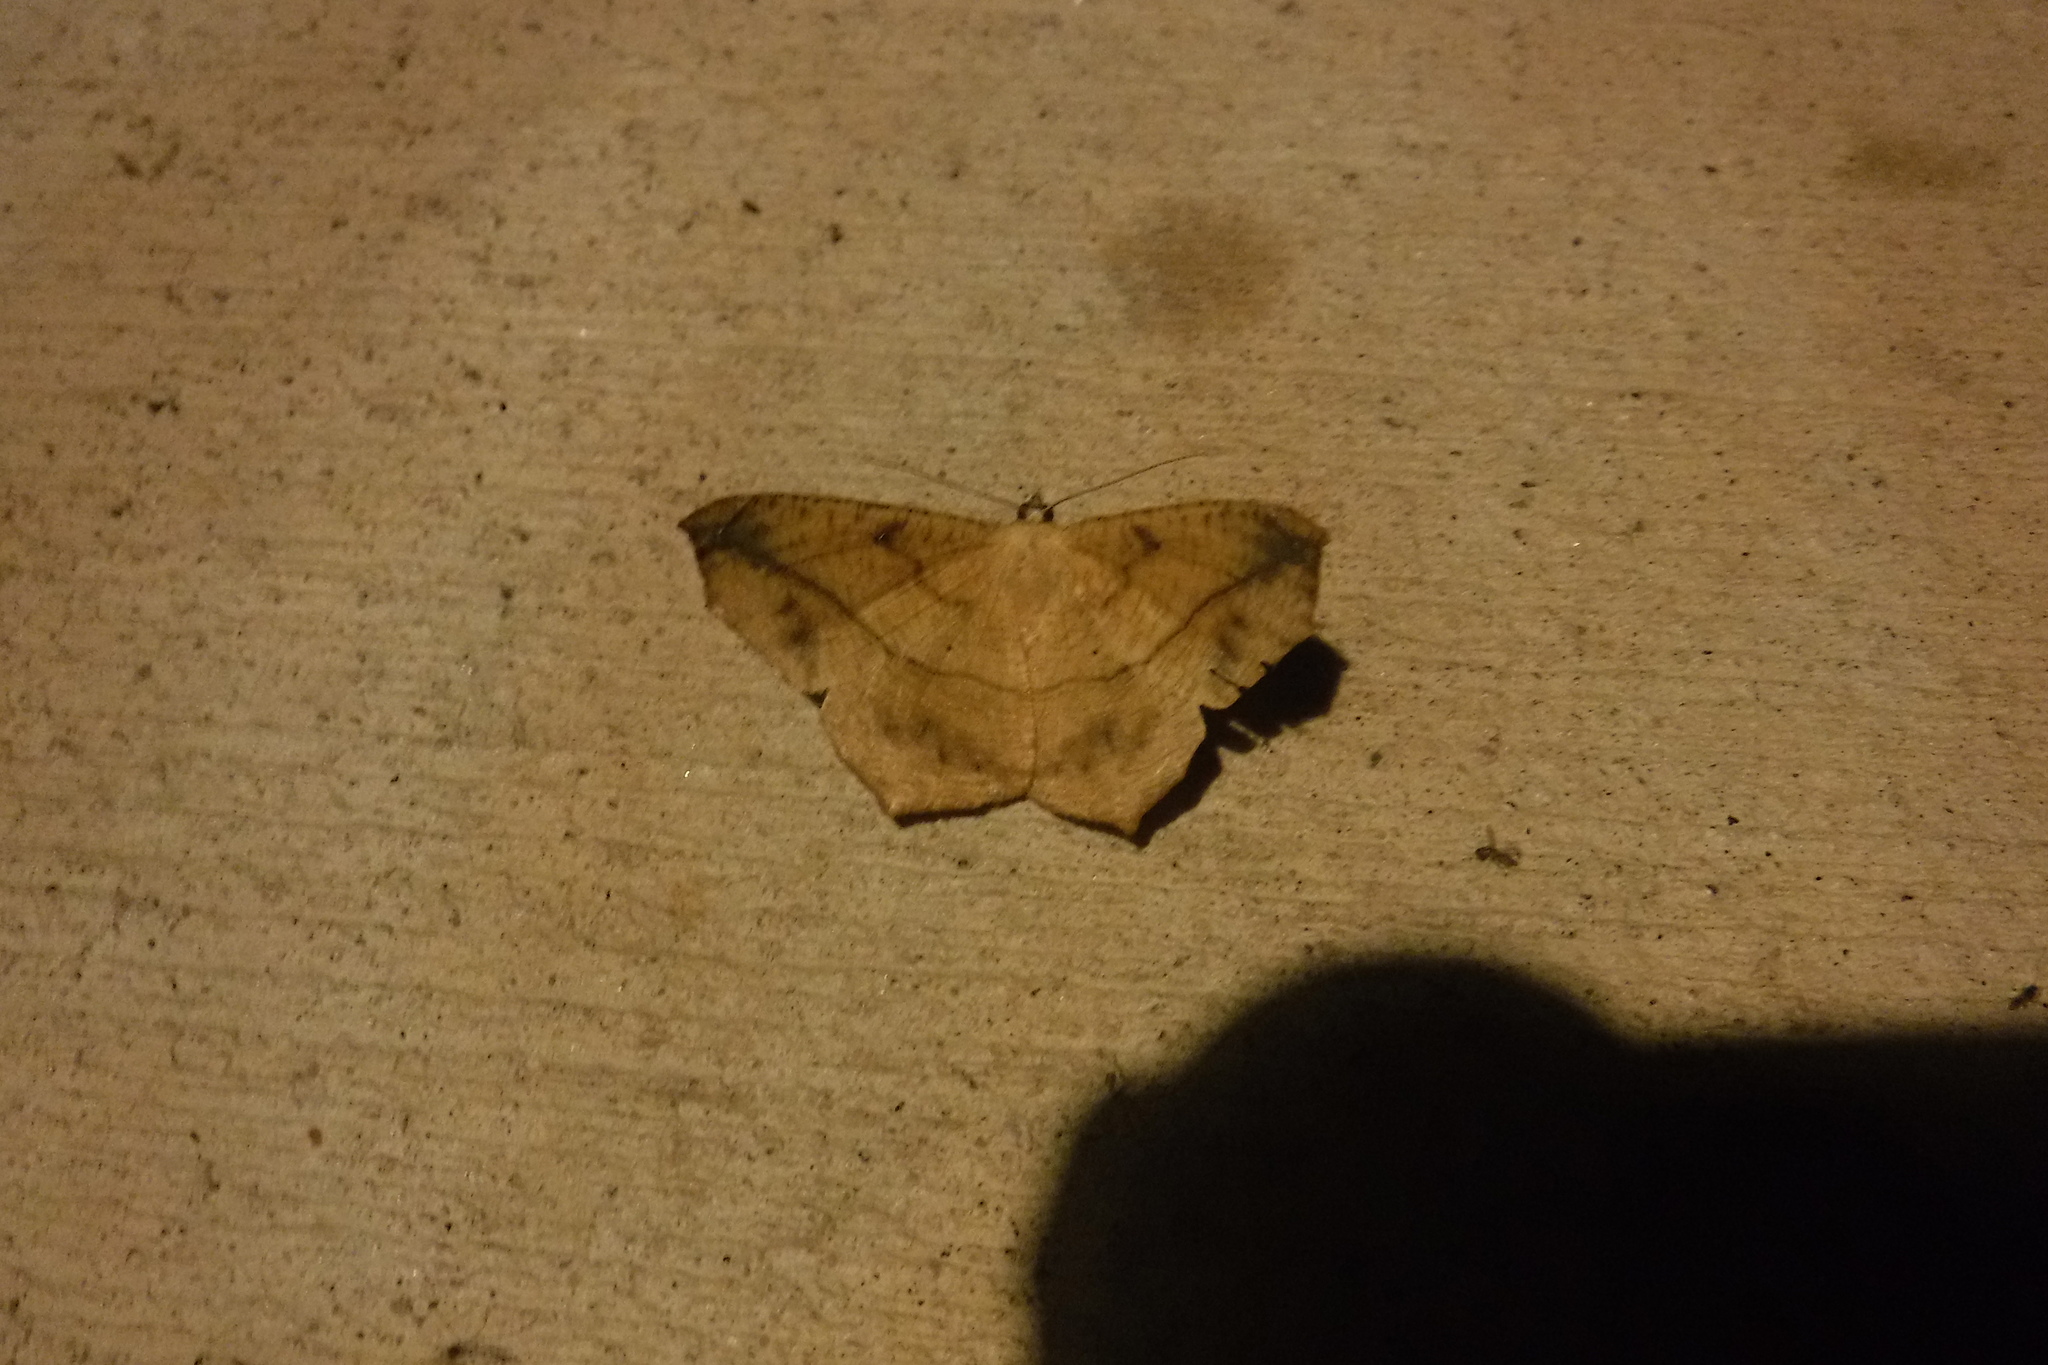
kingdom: Animalia
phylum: Arthropoda
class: Insecta
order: Lepidoptera
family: Geometridae
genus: Prochoerodes
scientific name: Prochoerodes lineola
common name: Large maple spanworm
